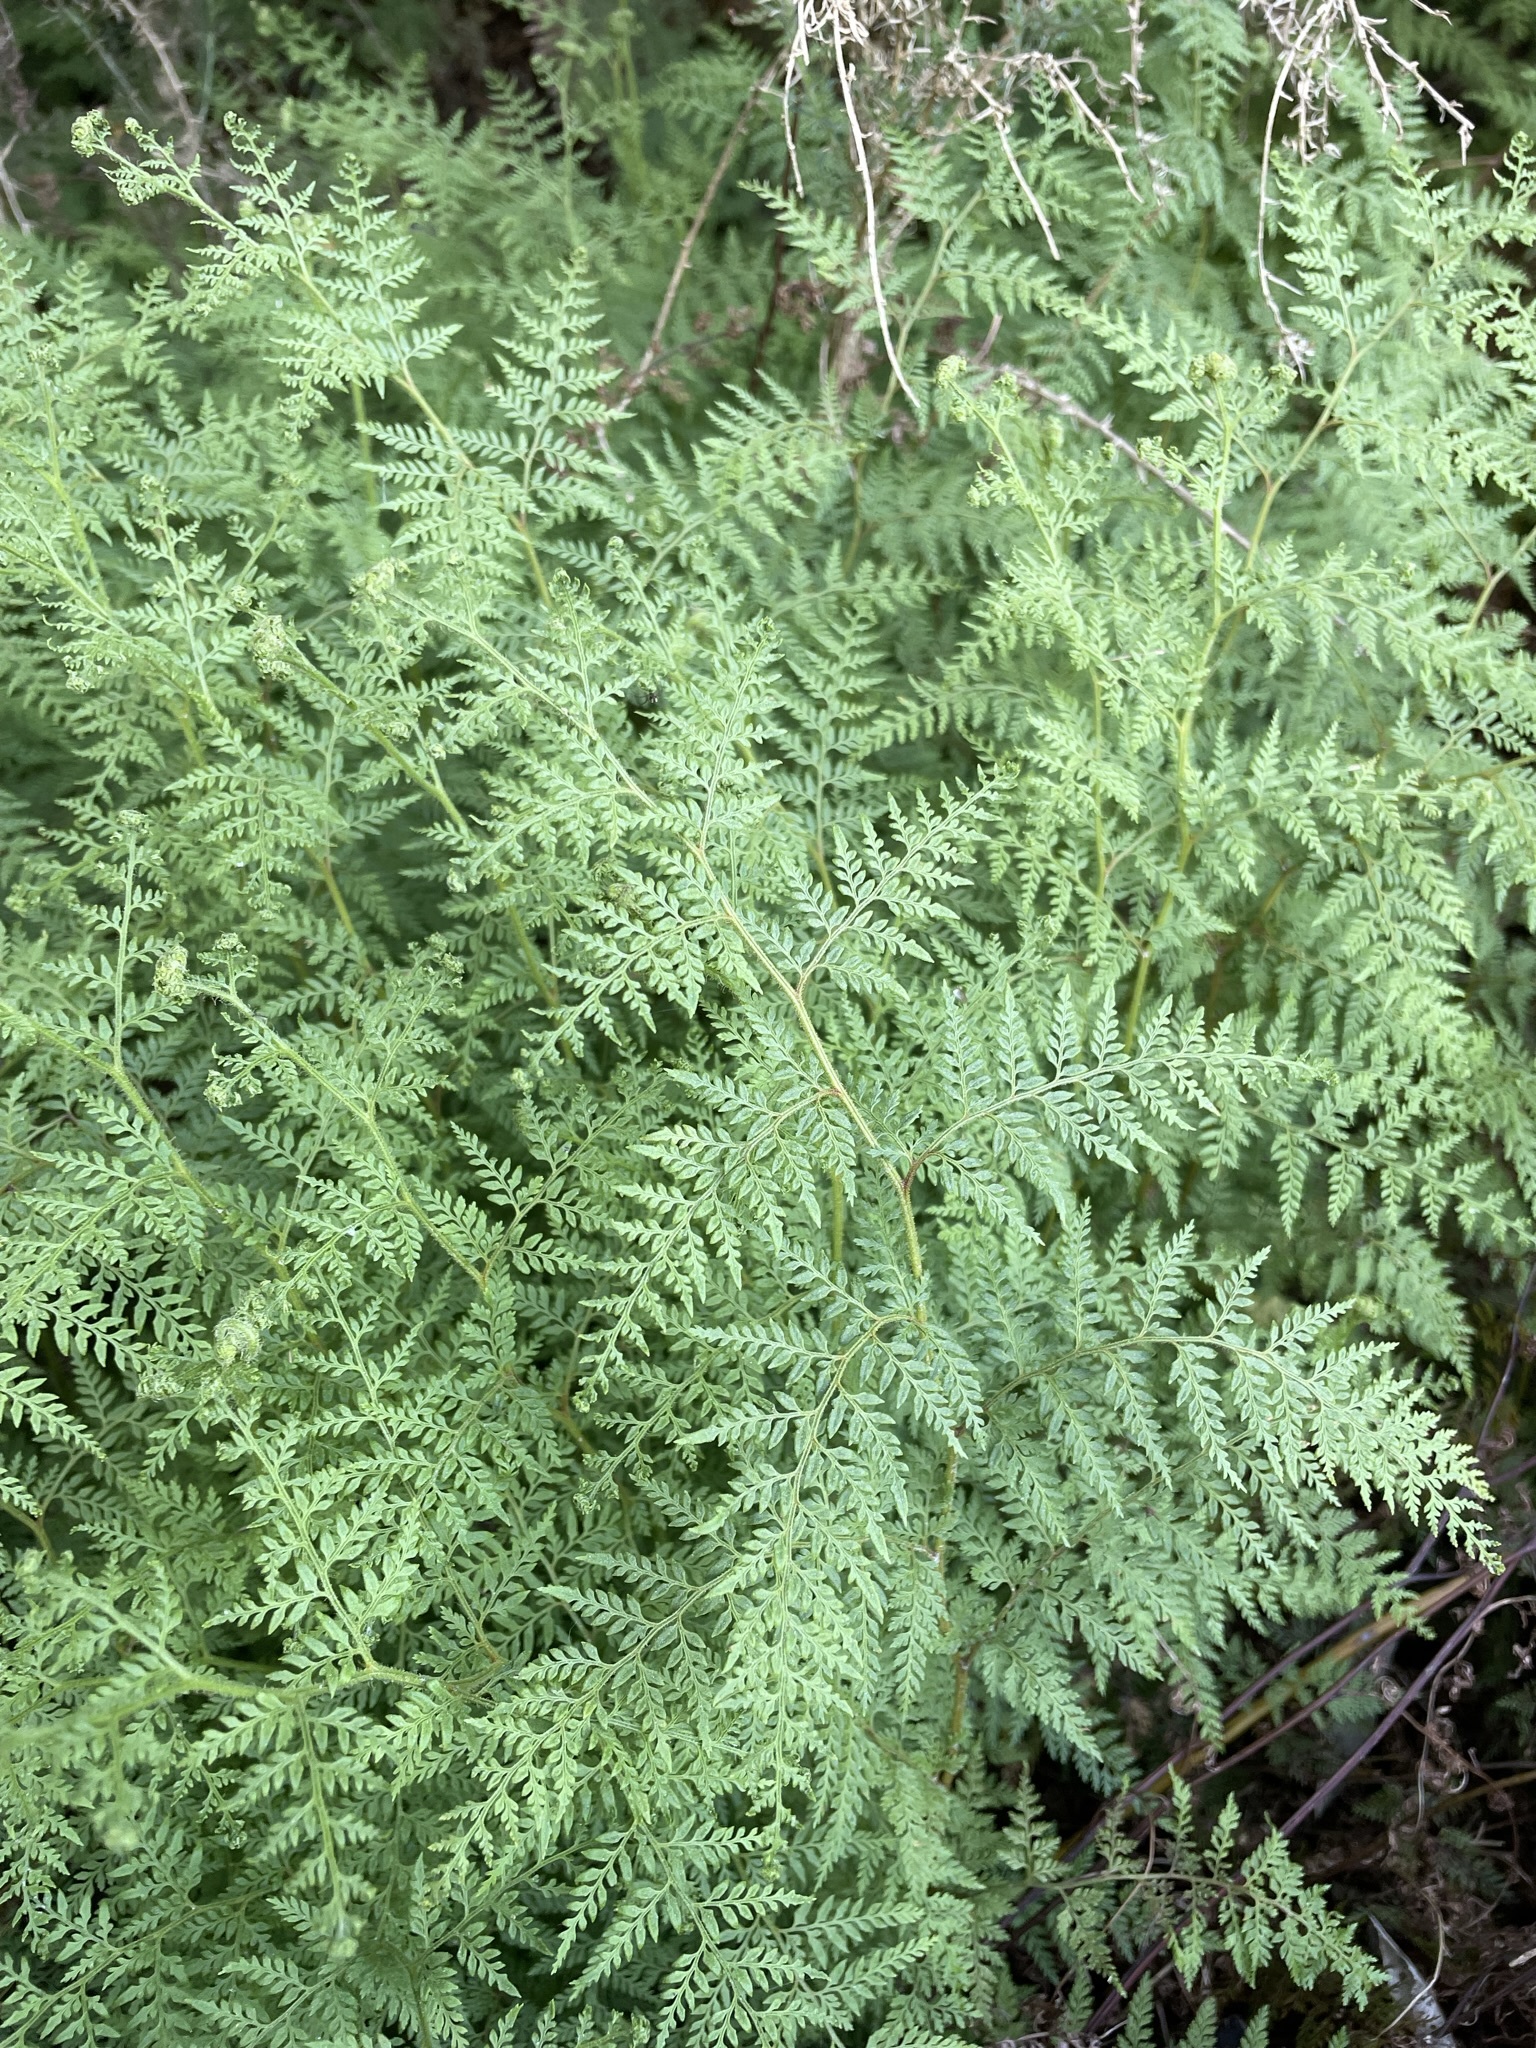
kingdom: Plantae
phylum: Tracheophyta
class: Polypodiopsida
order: Polypodiales
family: Dennstaedtiaceae
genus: Paesia
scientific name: Paesia scaberula
